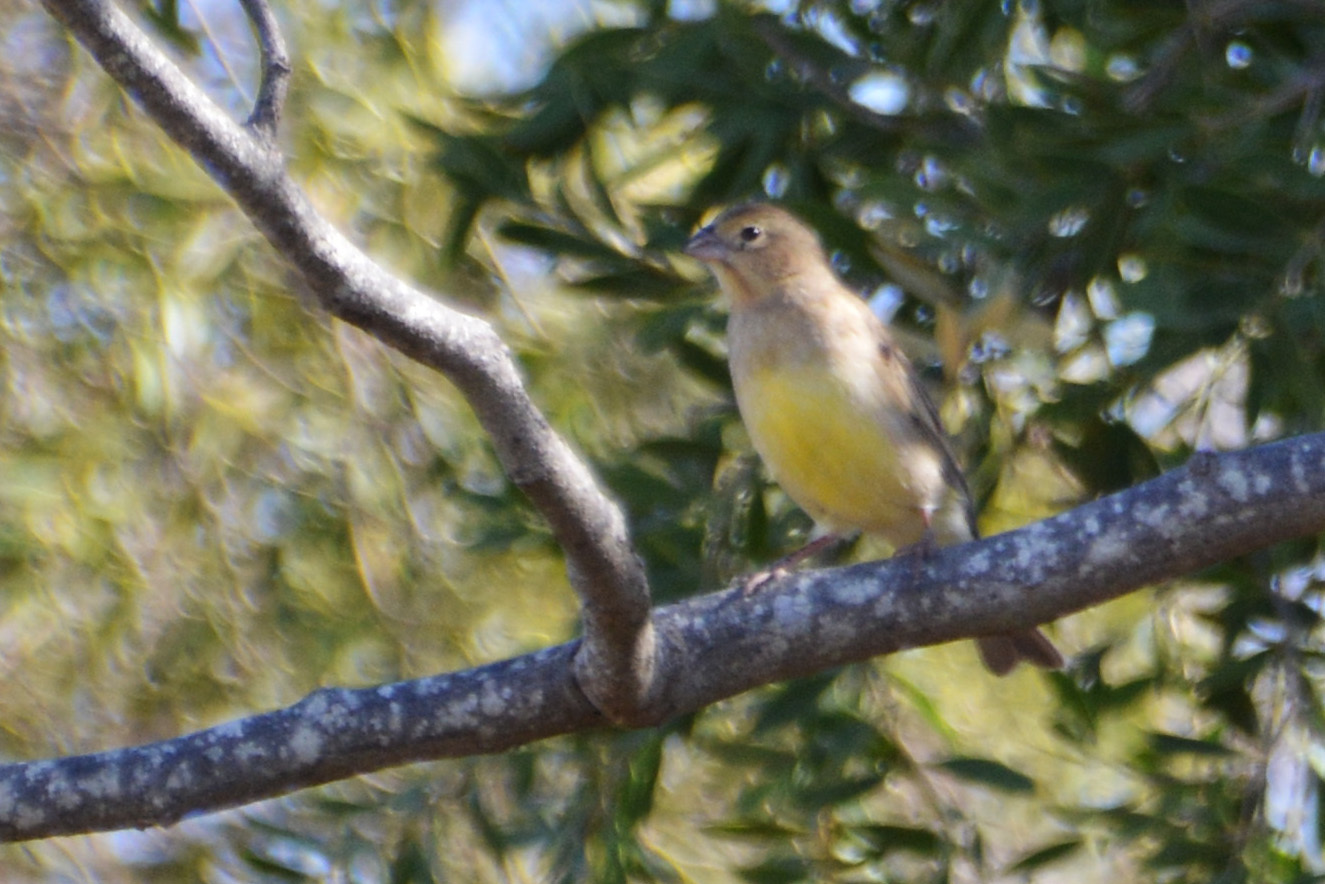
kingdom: Animalia
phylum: Chordata
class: Aves
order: Passeriformes
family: Thraupidae
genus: Sicalis
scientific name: Sicalis luteola
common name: Grassland yellow-finch
